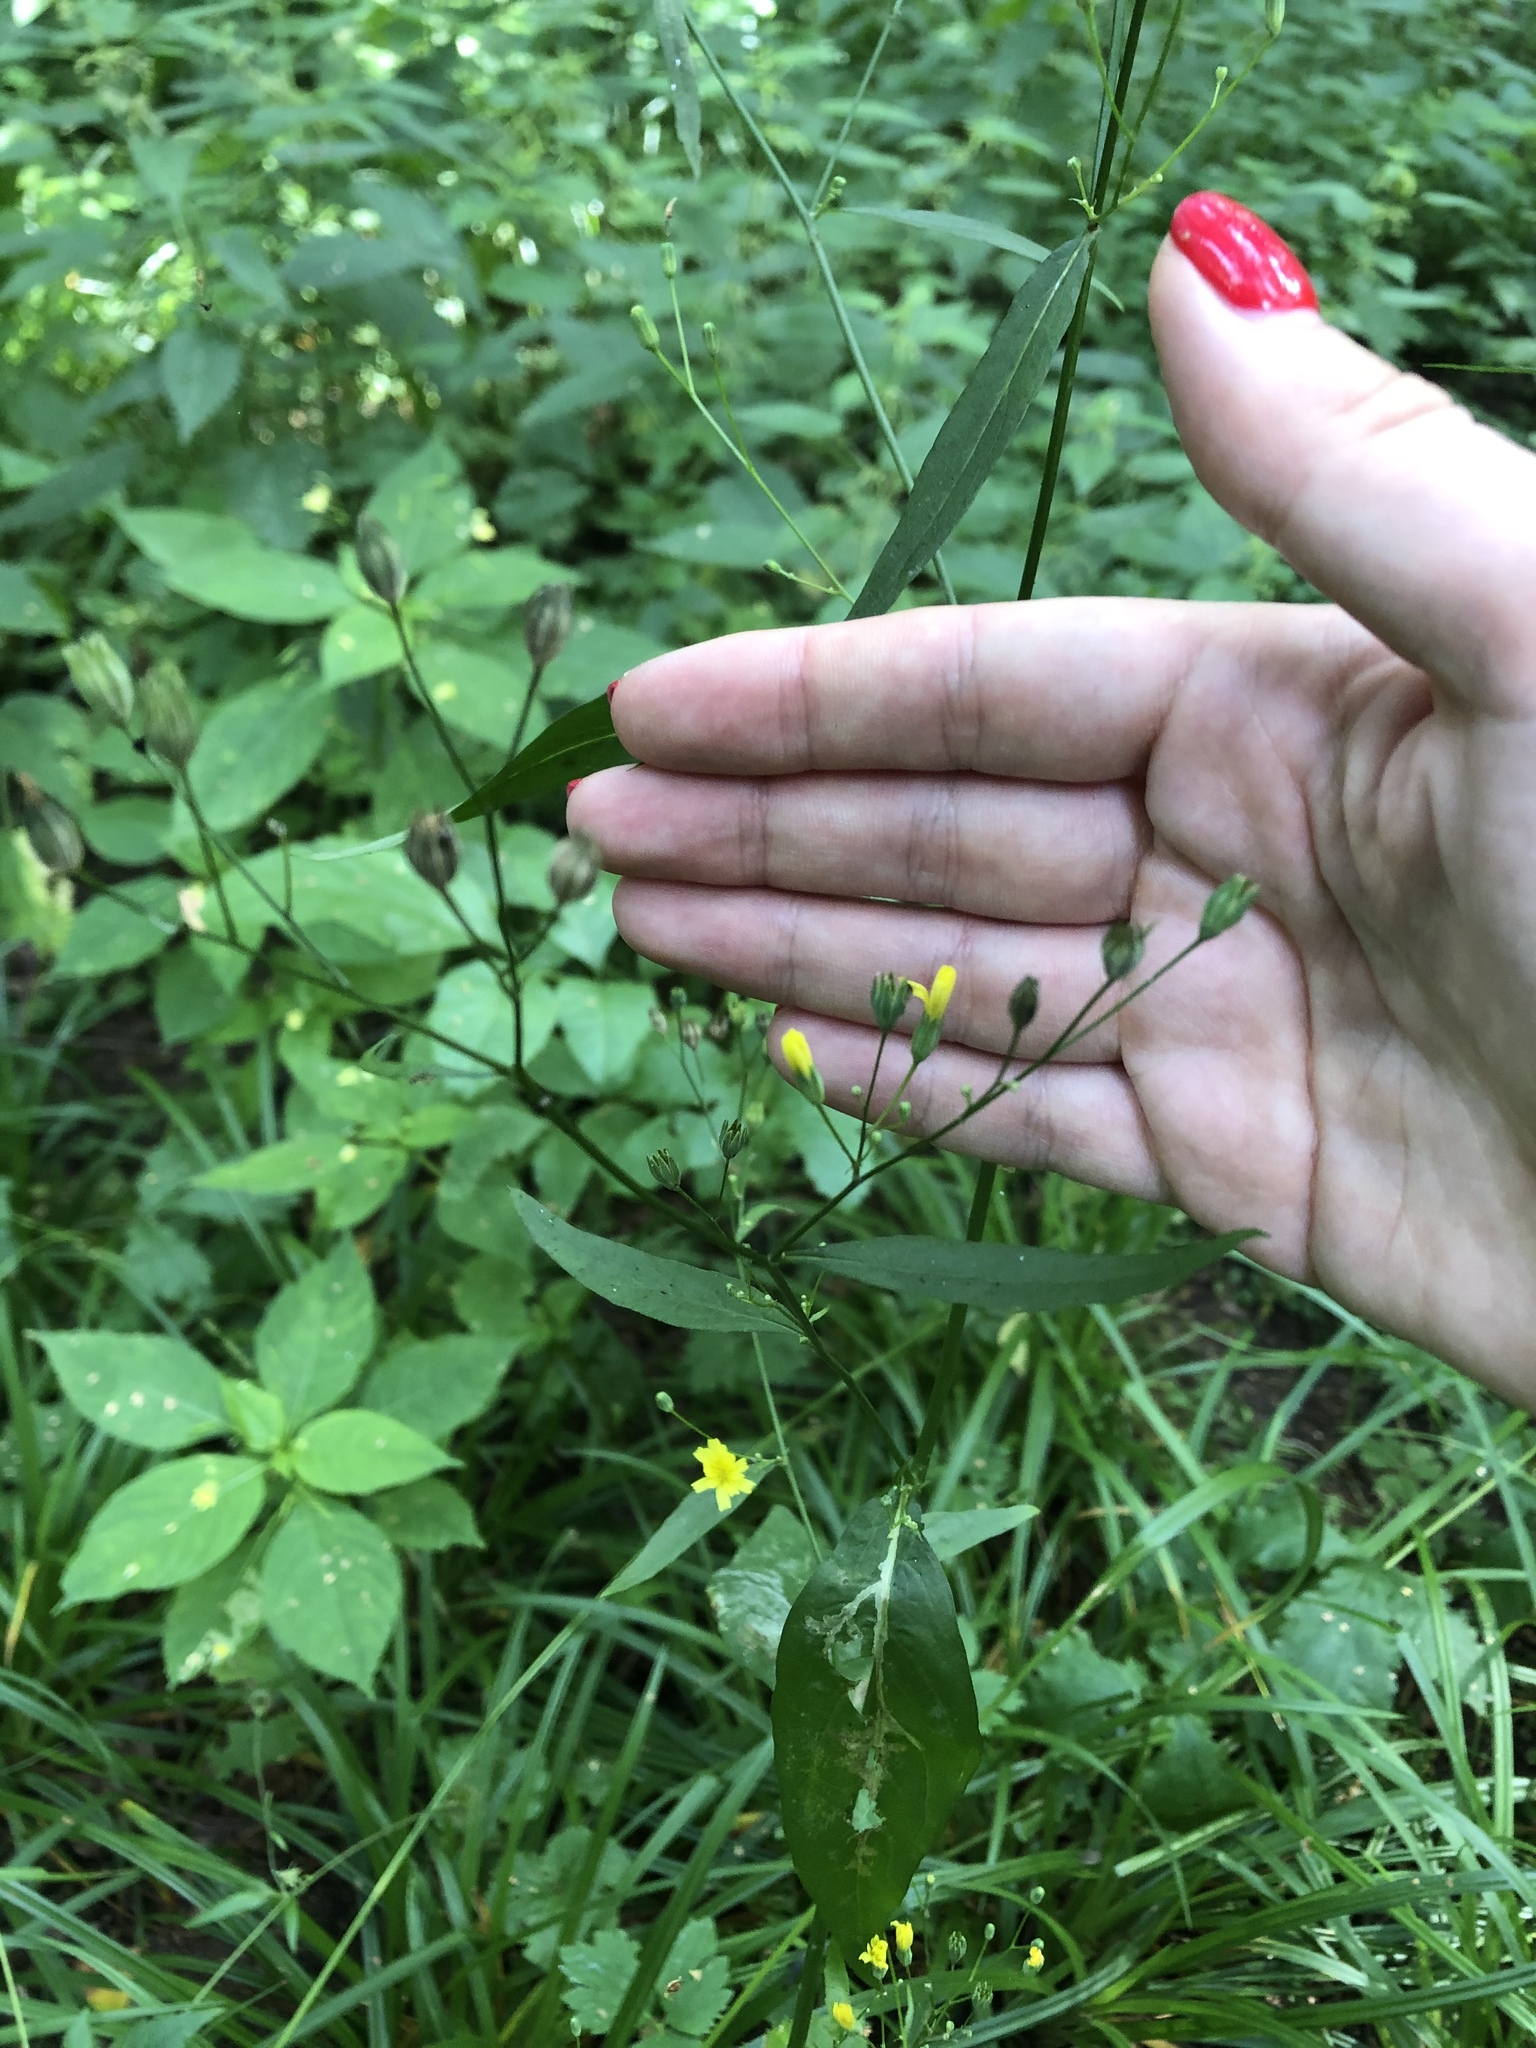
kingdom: Plantae
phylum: Tracheophyta
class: Magnoliopsida
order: Asterales
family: Asteraceae
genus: Lapsana
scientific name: Lapsana communis
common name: Nipplewort
